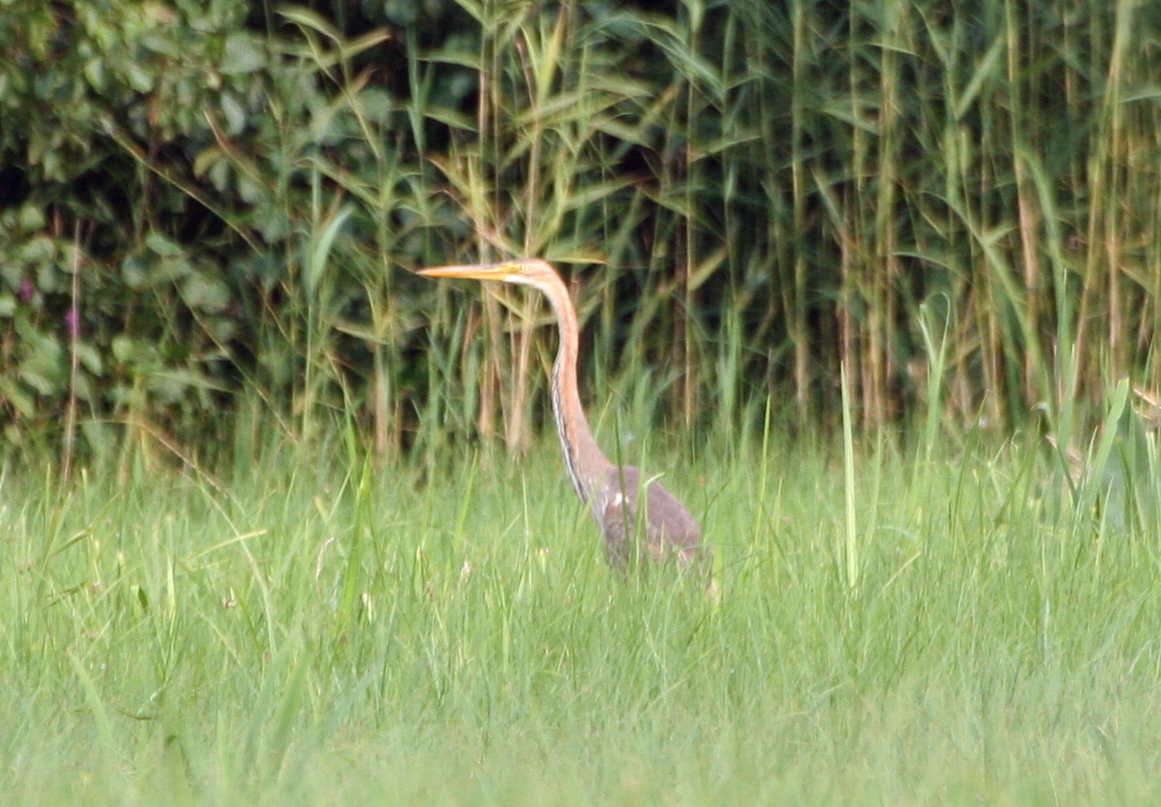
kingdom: Animalia
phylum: Chordata
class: Aves
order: Pelecaniformes
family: Ardeidae
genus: Ardea
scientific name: Ardea purpurea
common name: Purple heron
